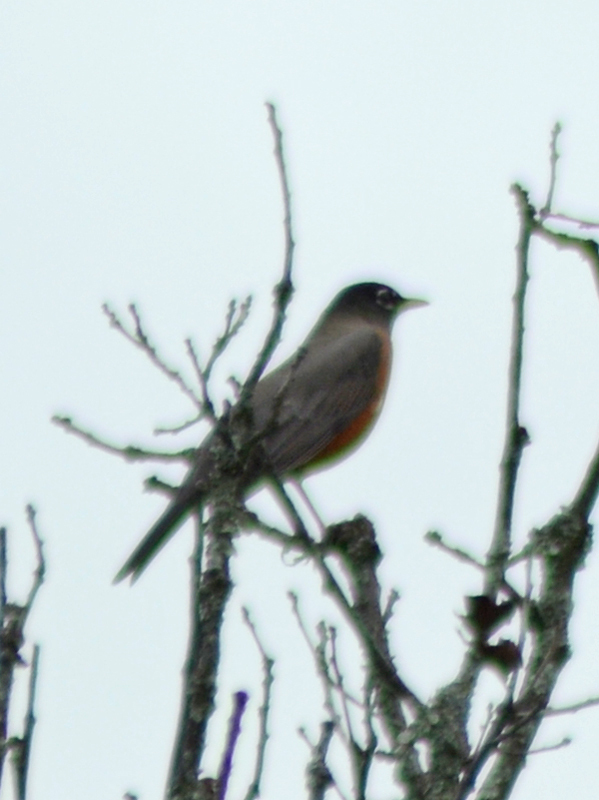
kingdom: Animalia
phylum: Chordata
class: Aves
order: Passeriformes
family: Turdidae
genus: Turdus
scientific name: Turdus migratorius
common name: American robin
